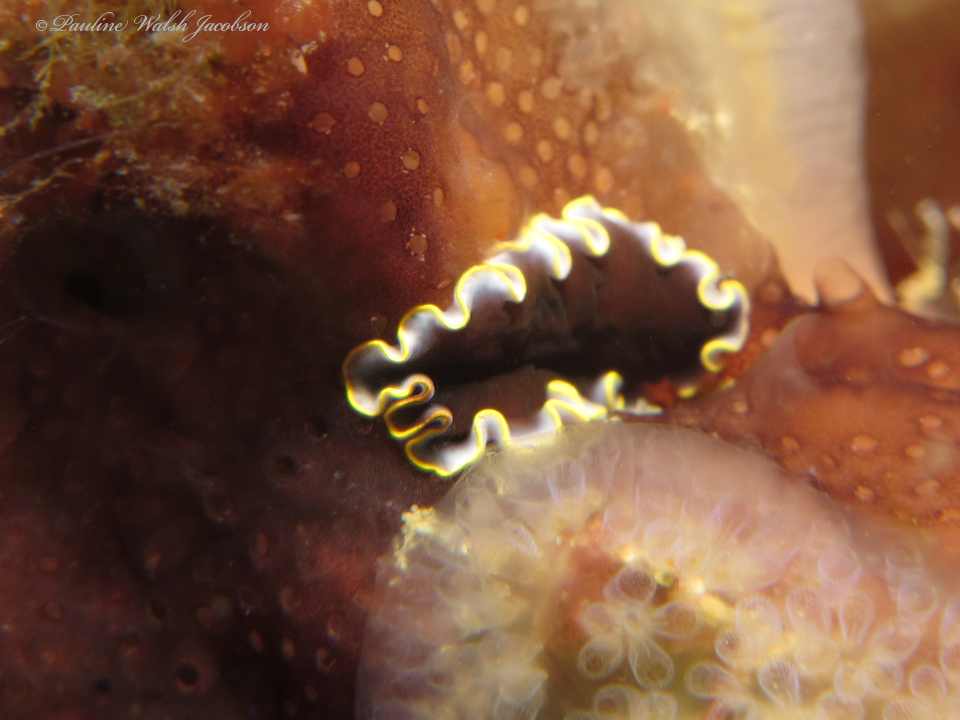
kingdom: Animalia
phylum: Platyhelminthes
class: Turbellaria
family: Pseudocerotidae
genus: Pseudoceros
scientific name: Pseudoceros duplicinctus
